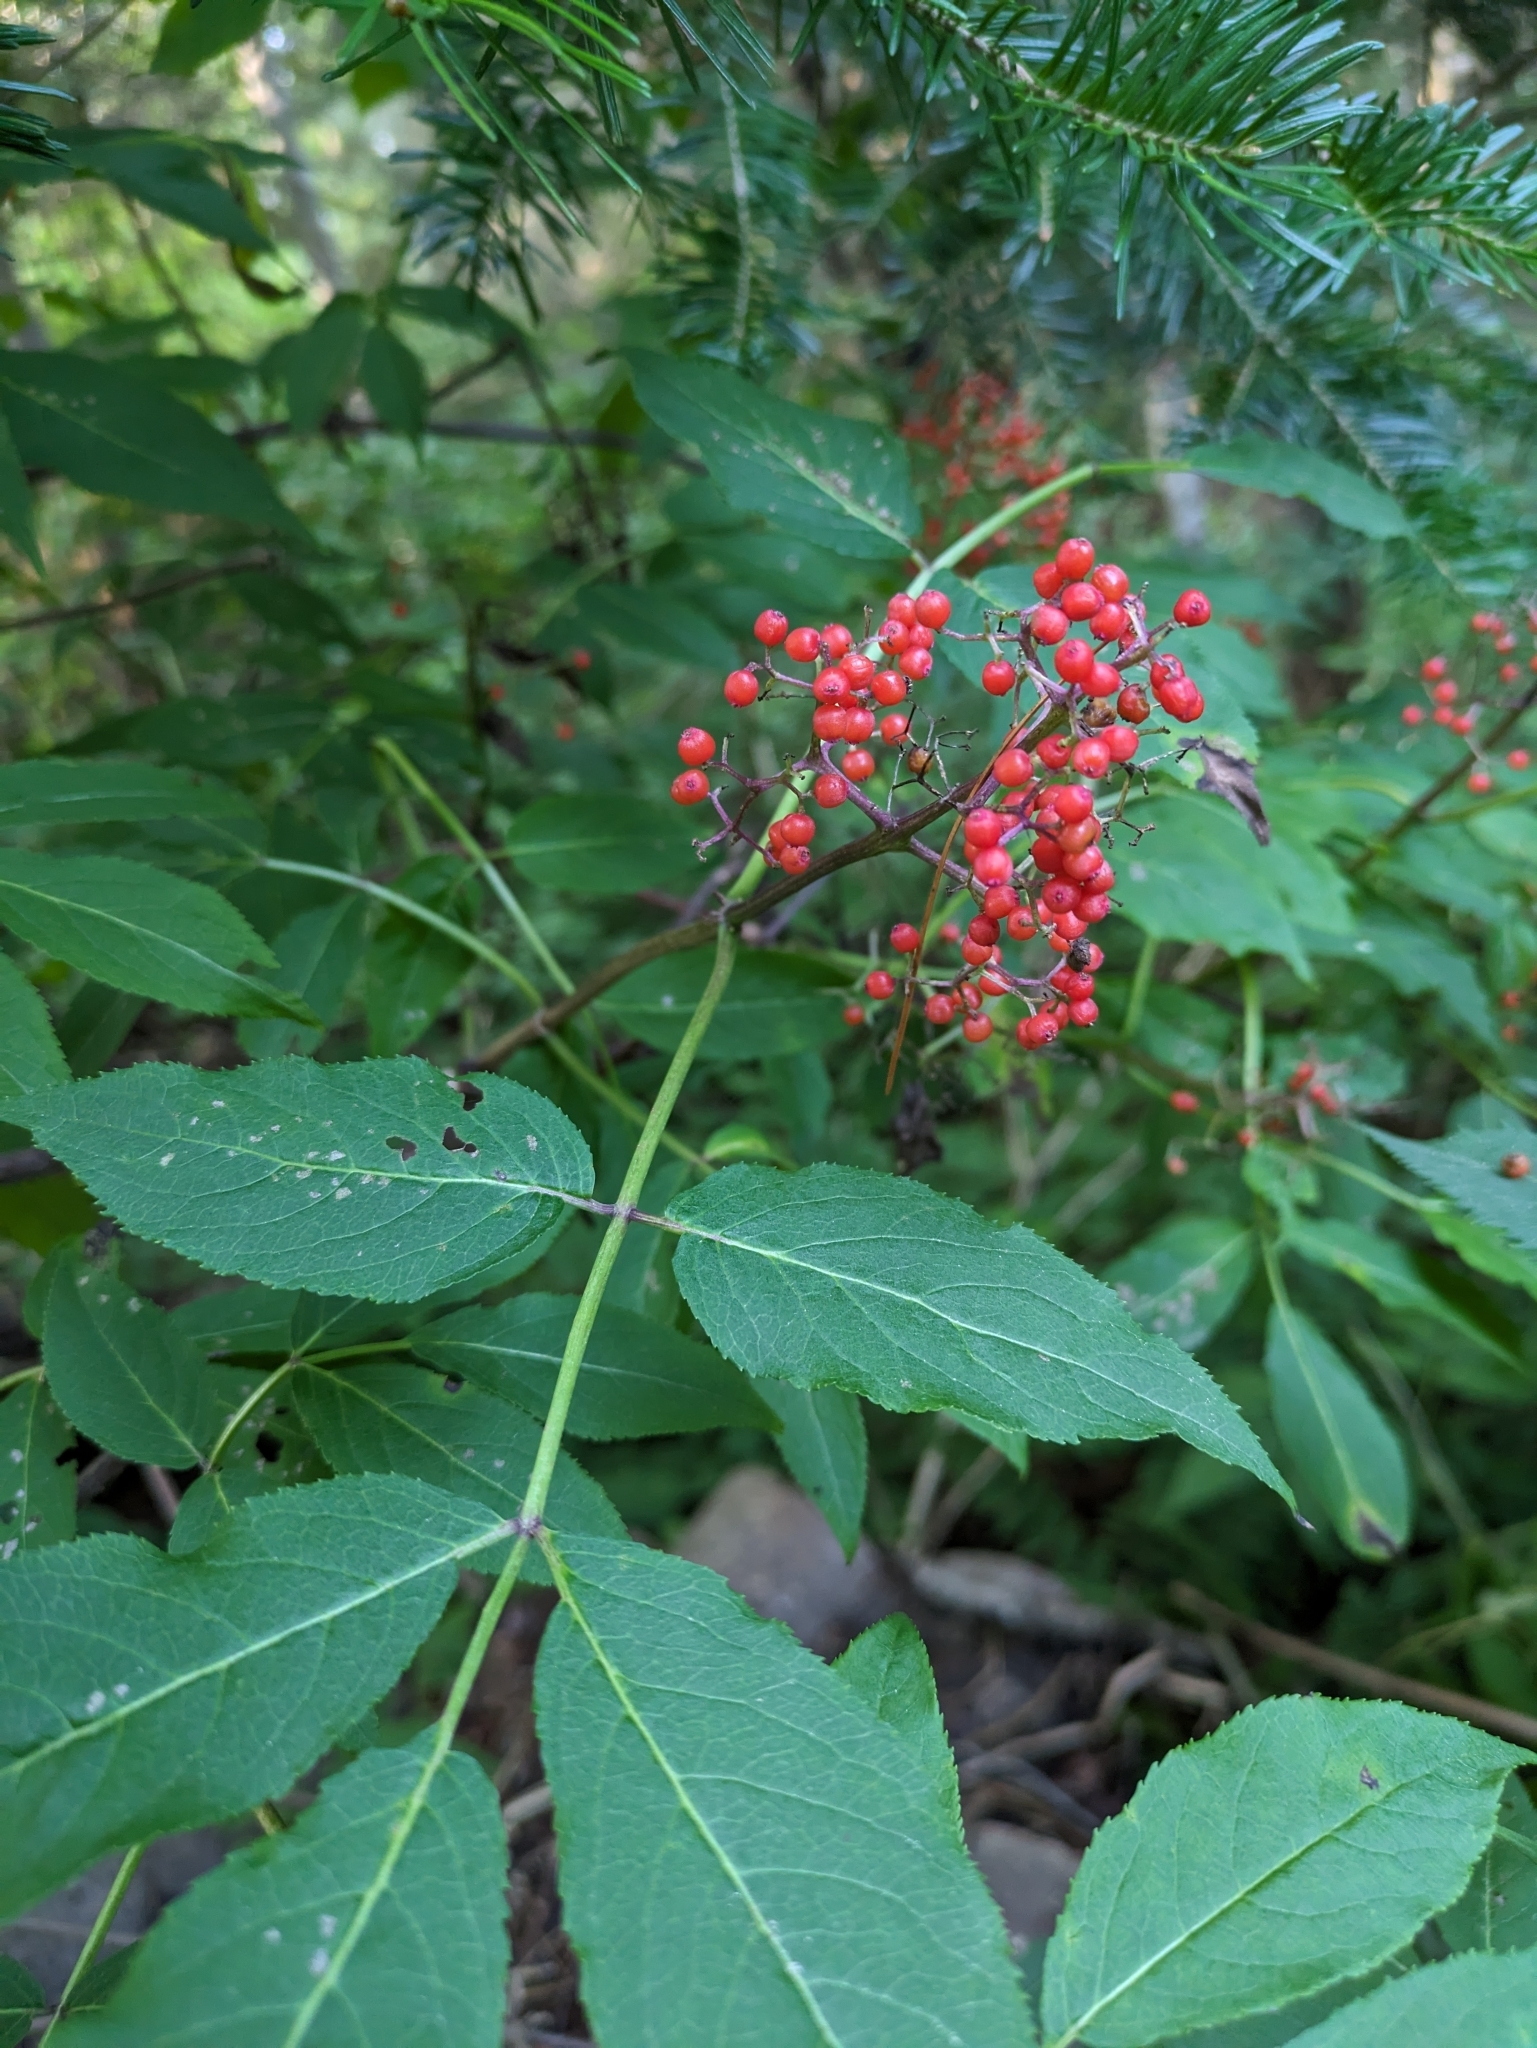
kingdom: Plantae
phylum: Tracheophyta
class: Magnoliopsida
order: Dipsacales
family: Viburnaceae
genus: Sambucus
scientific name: Sambucus racemosa
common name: Red-berried elder
